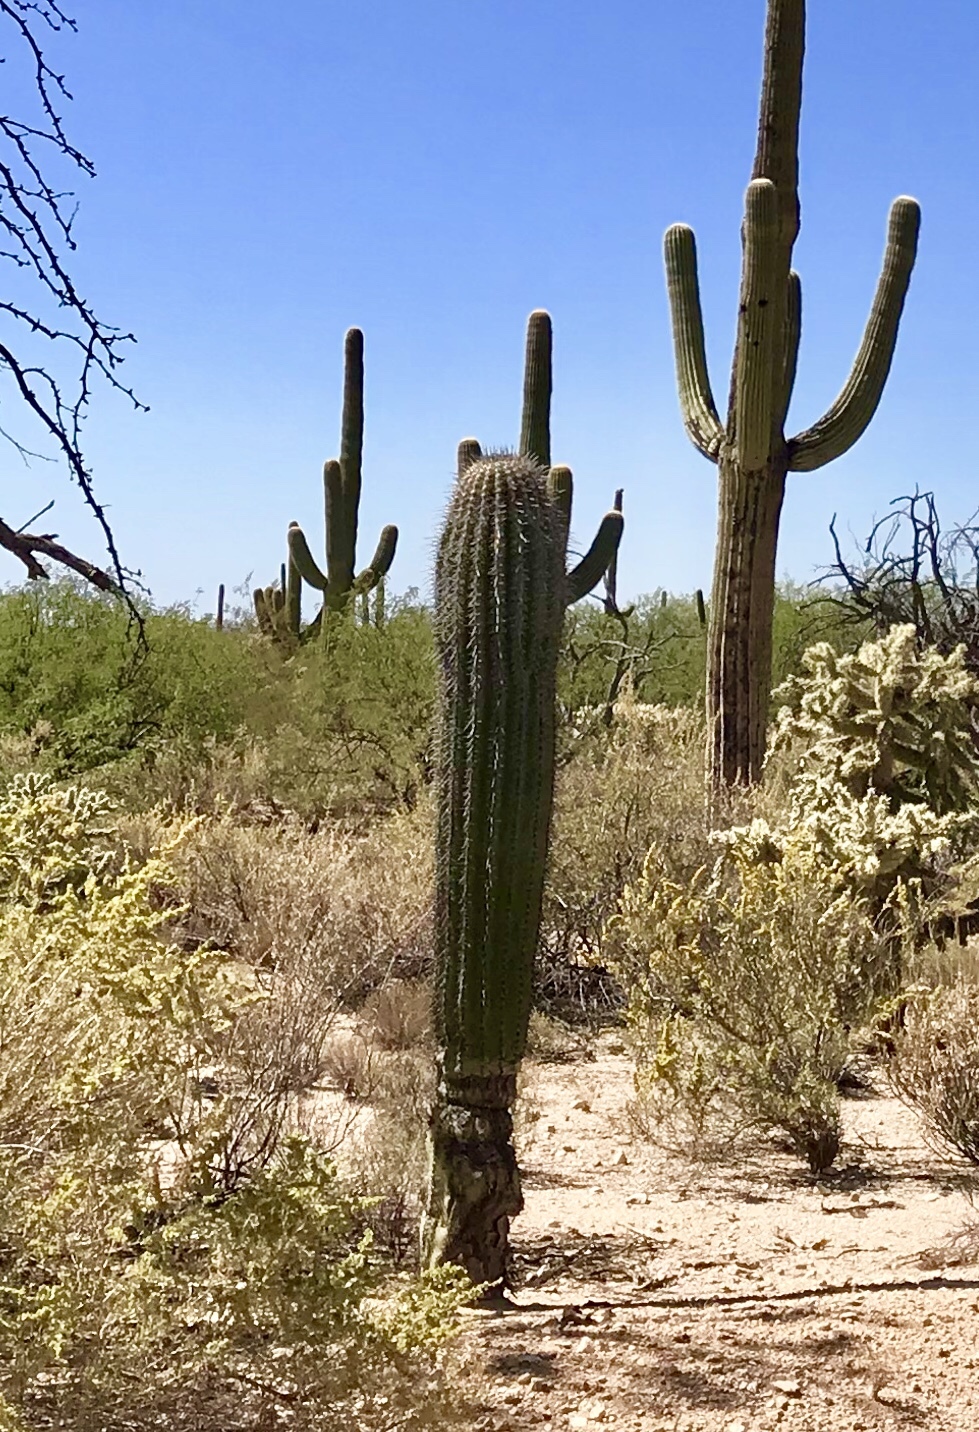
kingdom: Plantae
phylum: Tracheophyta
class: Magnoliopsida
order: Caryophyllales
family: Cactaceae
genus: Carnegiea
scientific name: Carnegiea gigantea
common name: Saguaro
